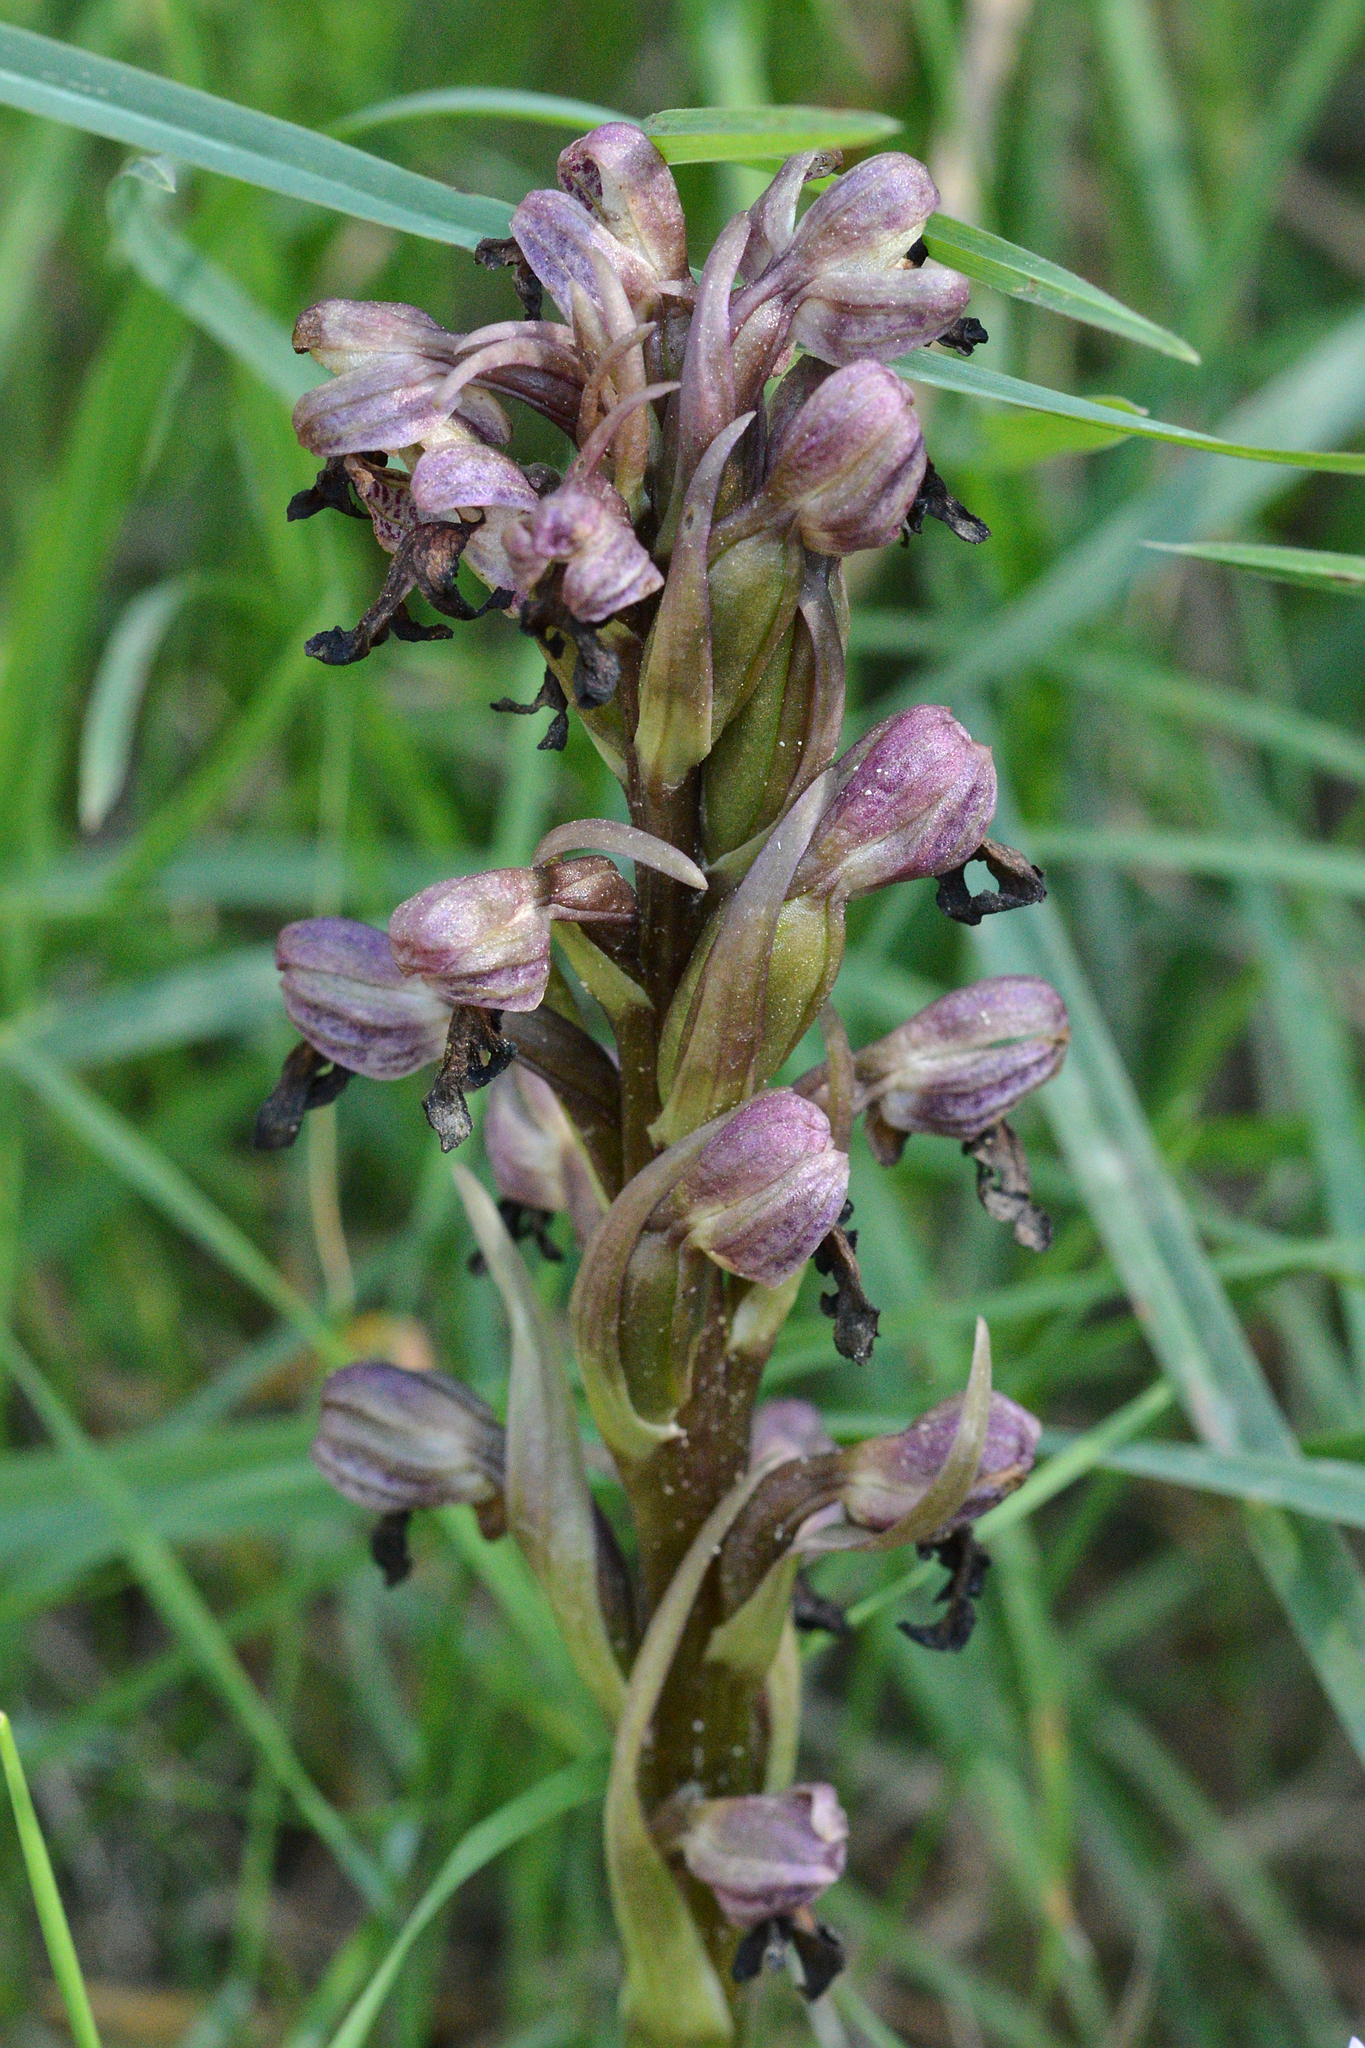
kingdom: Plantae
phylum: Tracheophyta
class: Liliopsida
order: Asparagales
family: Orchidaceae
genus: Himantoglossum
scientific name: Himantoglossum robertianum
